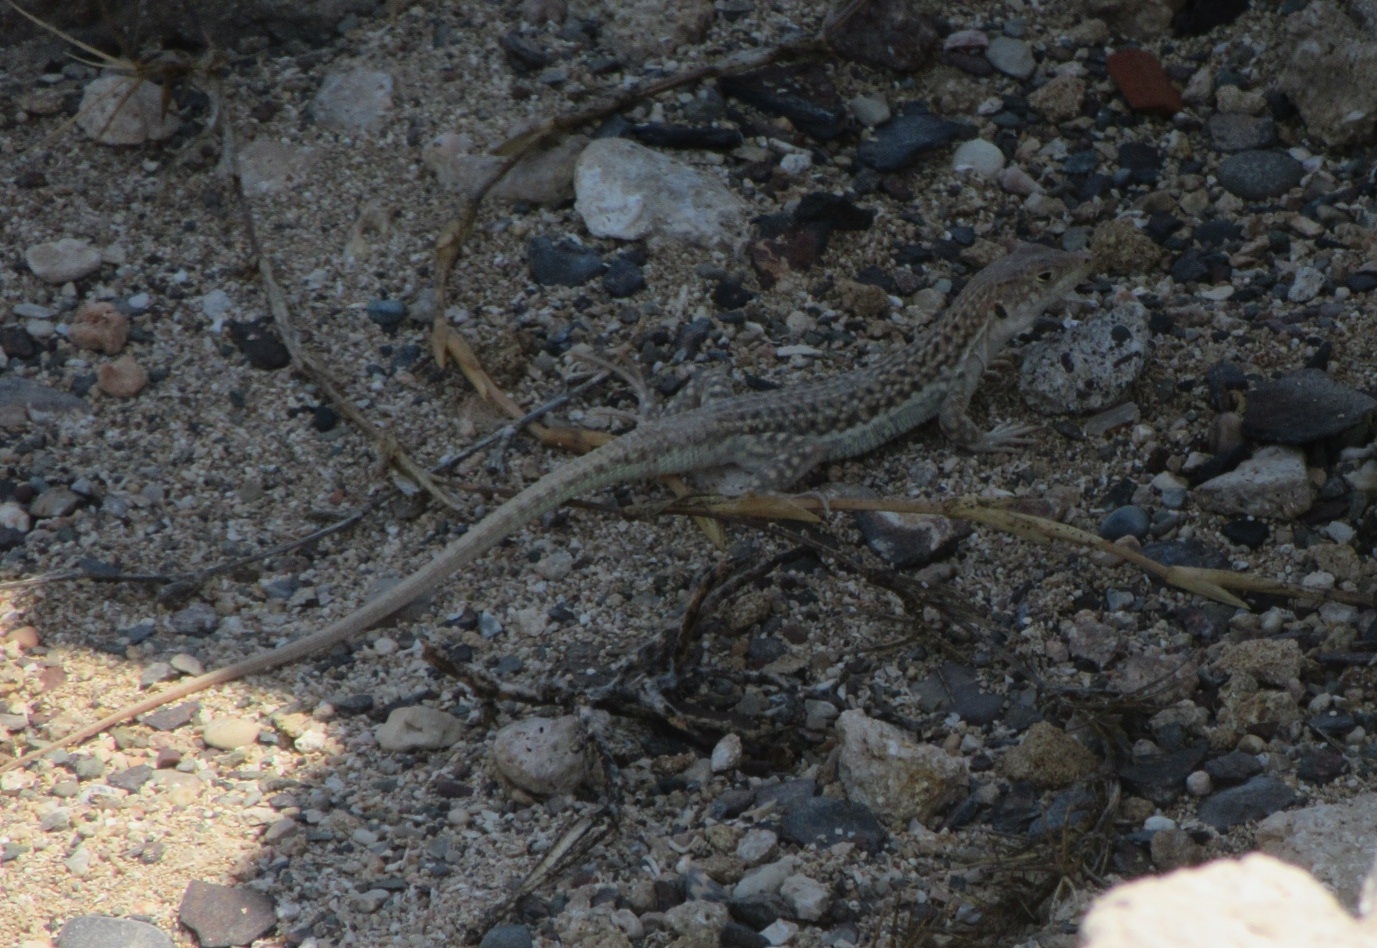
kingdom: Animalia
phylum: Chordata
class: Squamata
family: Lacertidae
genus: Acanthodactylus
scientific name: Acanthodactylus schreiberi
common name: Schreiber's fringe-fingered lizard
